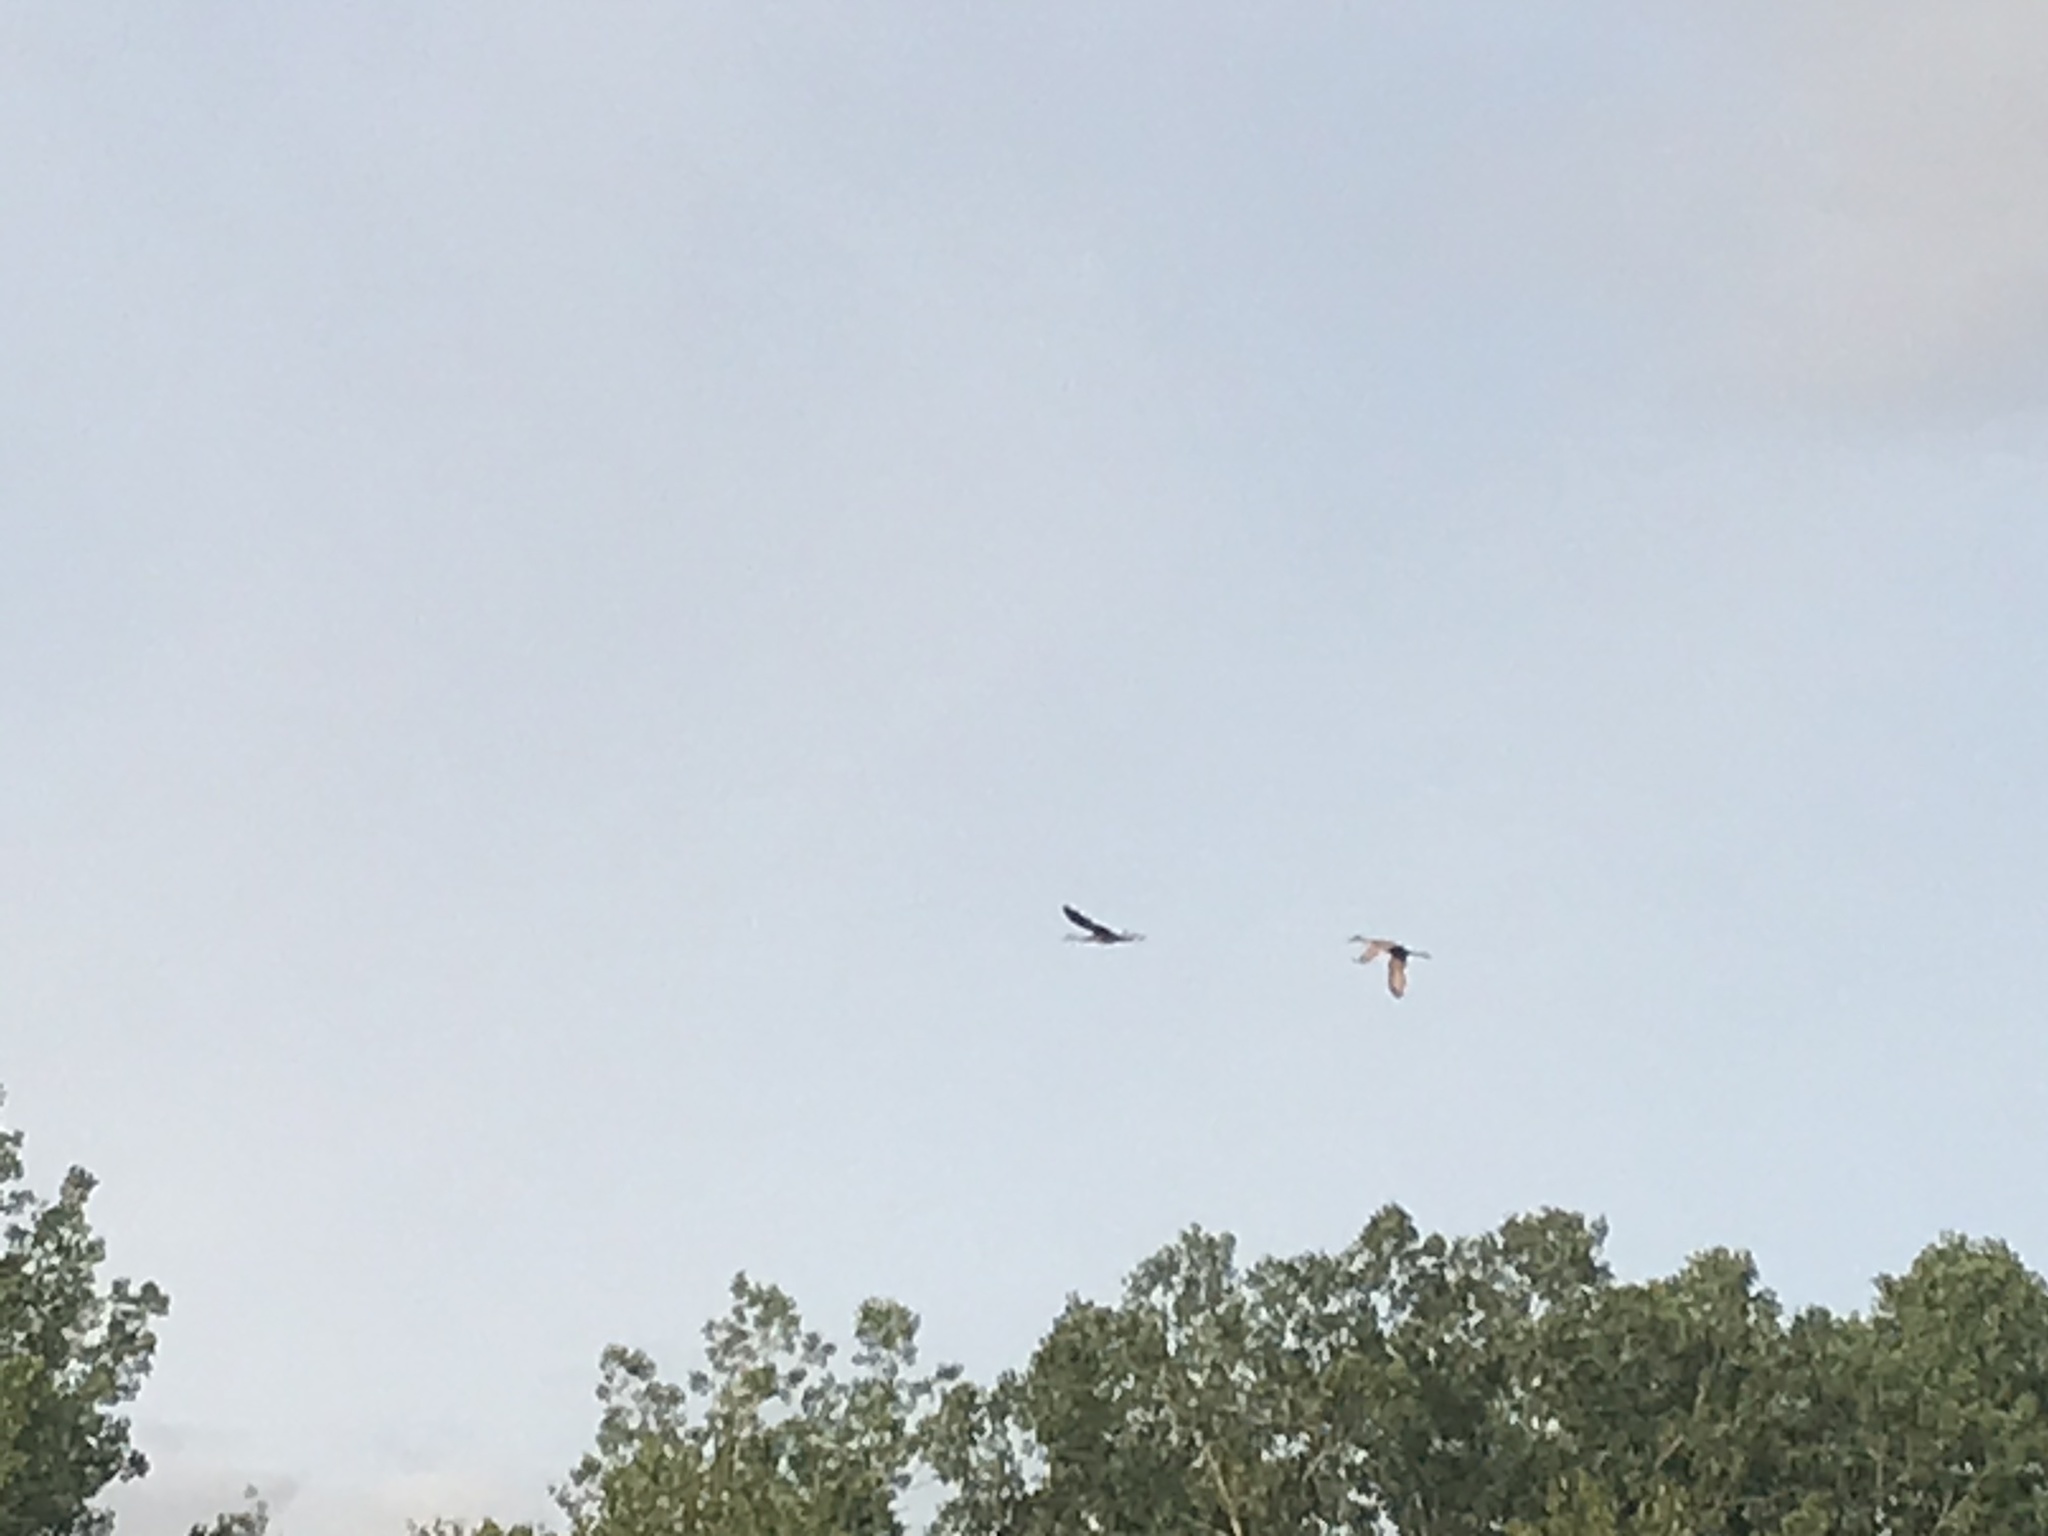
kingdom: Animalia
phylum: Chordata
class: Aves
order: Gruiformes
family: Gruidae
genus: Grus
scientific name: Grus canadensis
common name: Sandhill crane
